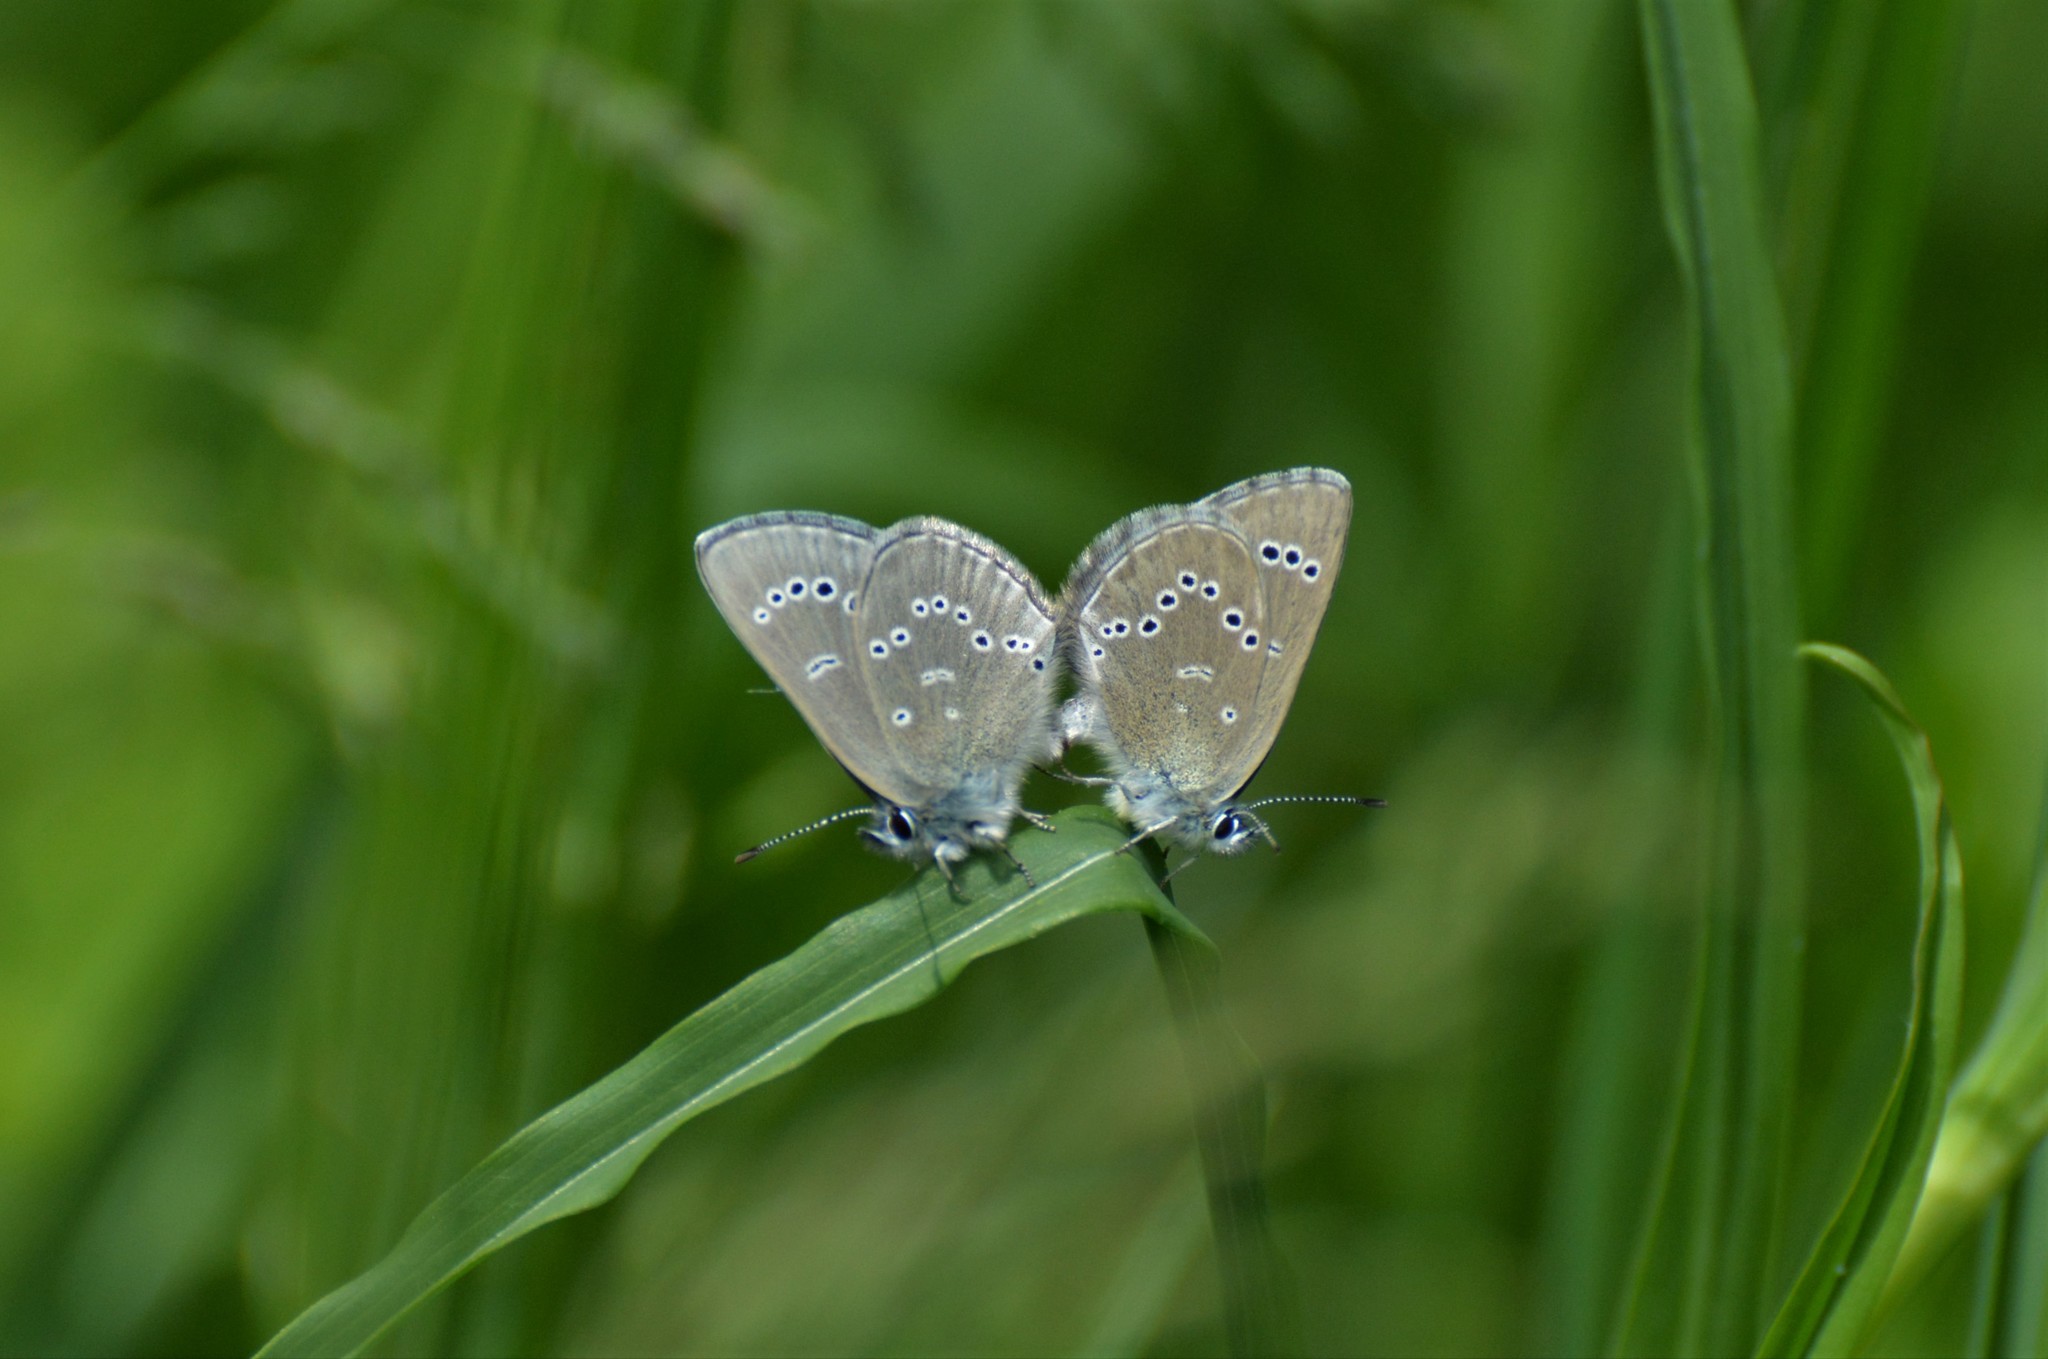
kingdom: Animalia
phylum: Arthropoda
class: Insecta
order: Lepidoptera
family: Lycaenidae
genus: Glaucopsyche
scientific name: Glaucopsyche lygdamus
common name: Silvery blue
